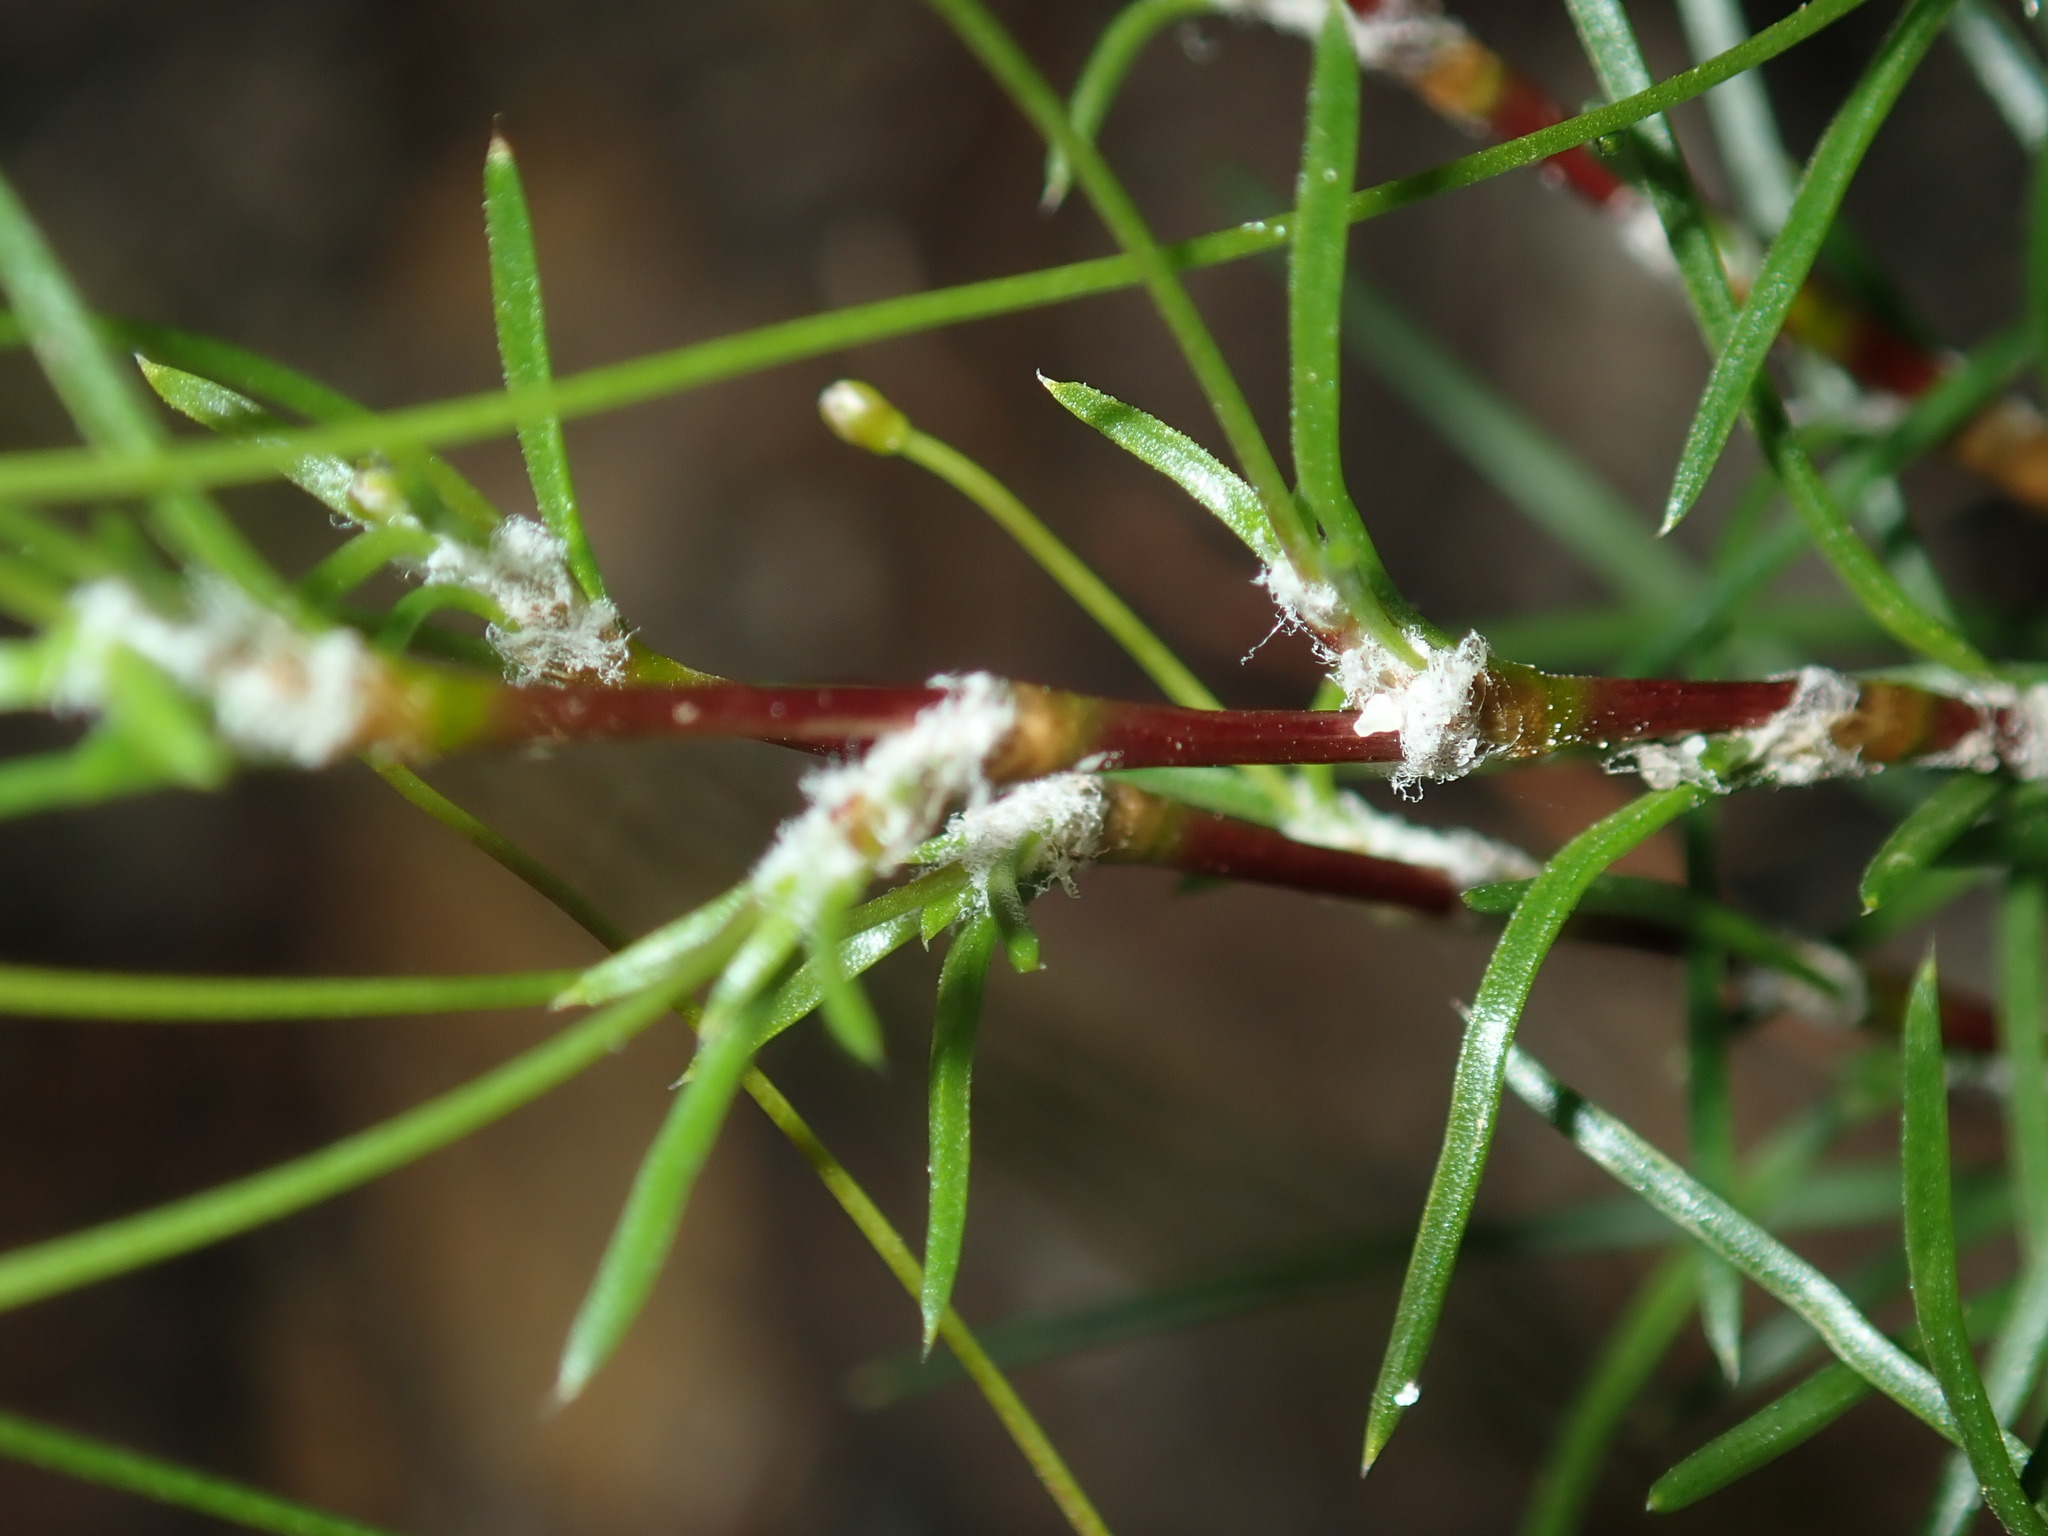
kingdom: Plantae
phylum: Tracheophyta
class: Liliopsida
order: Asparagales
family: Asparagaceae
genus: Laxmannia
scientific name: Laxmannia gracilis
